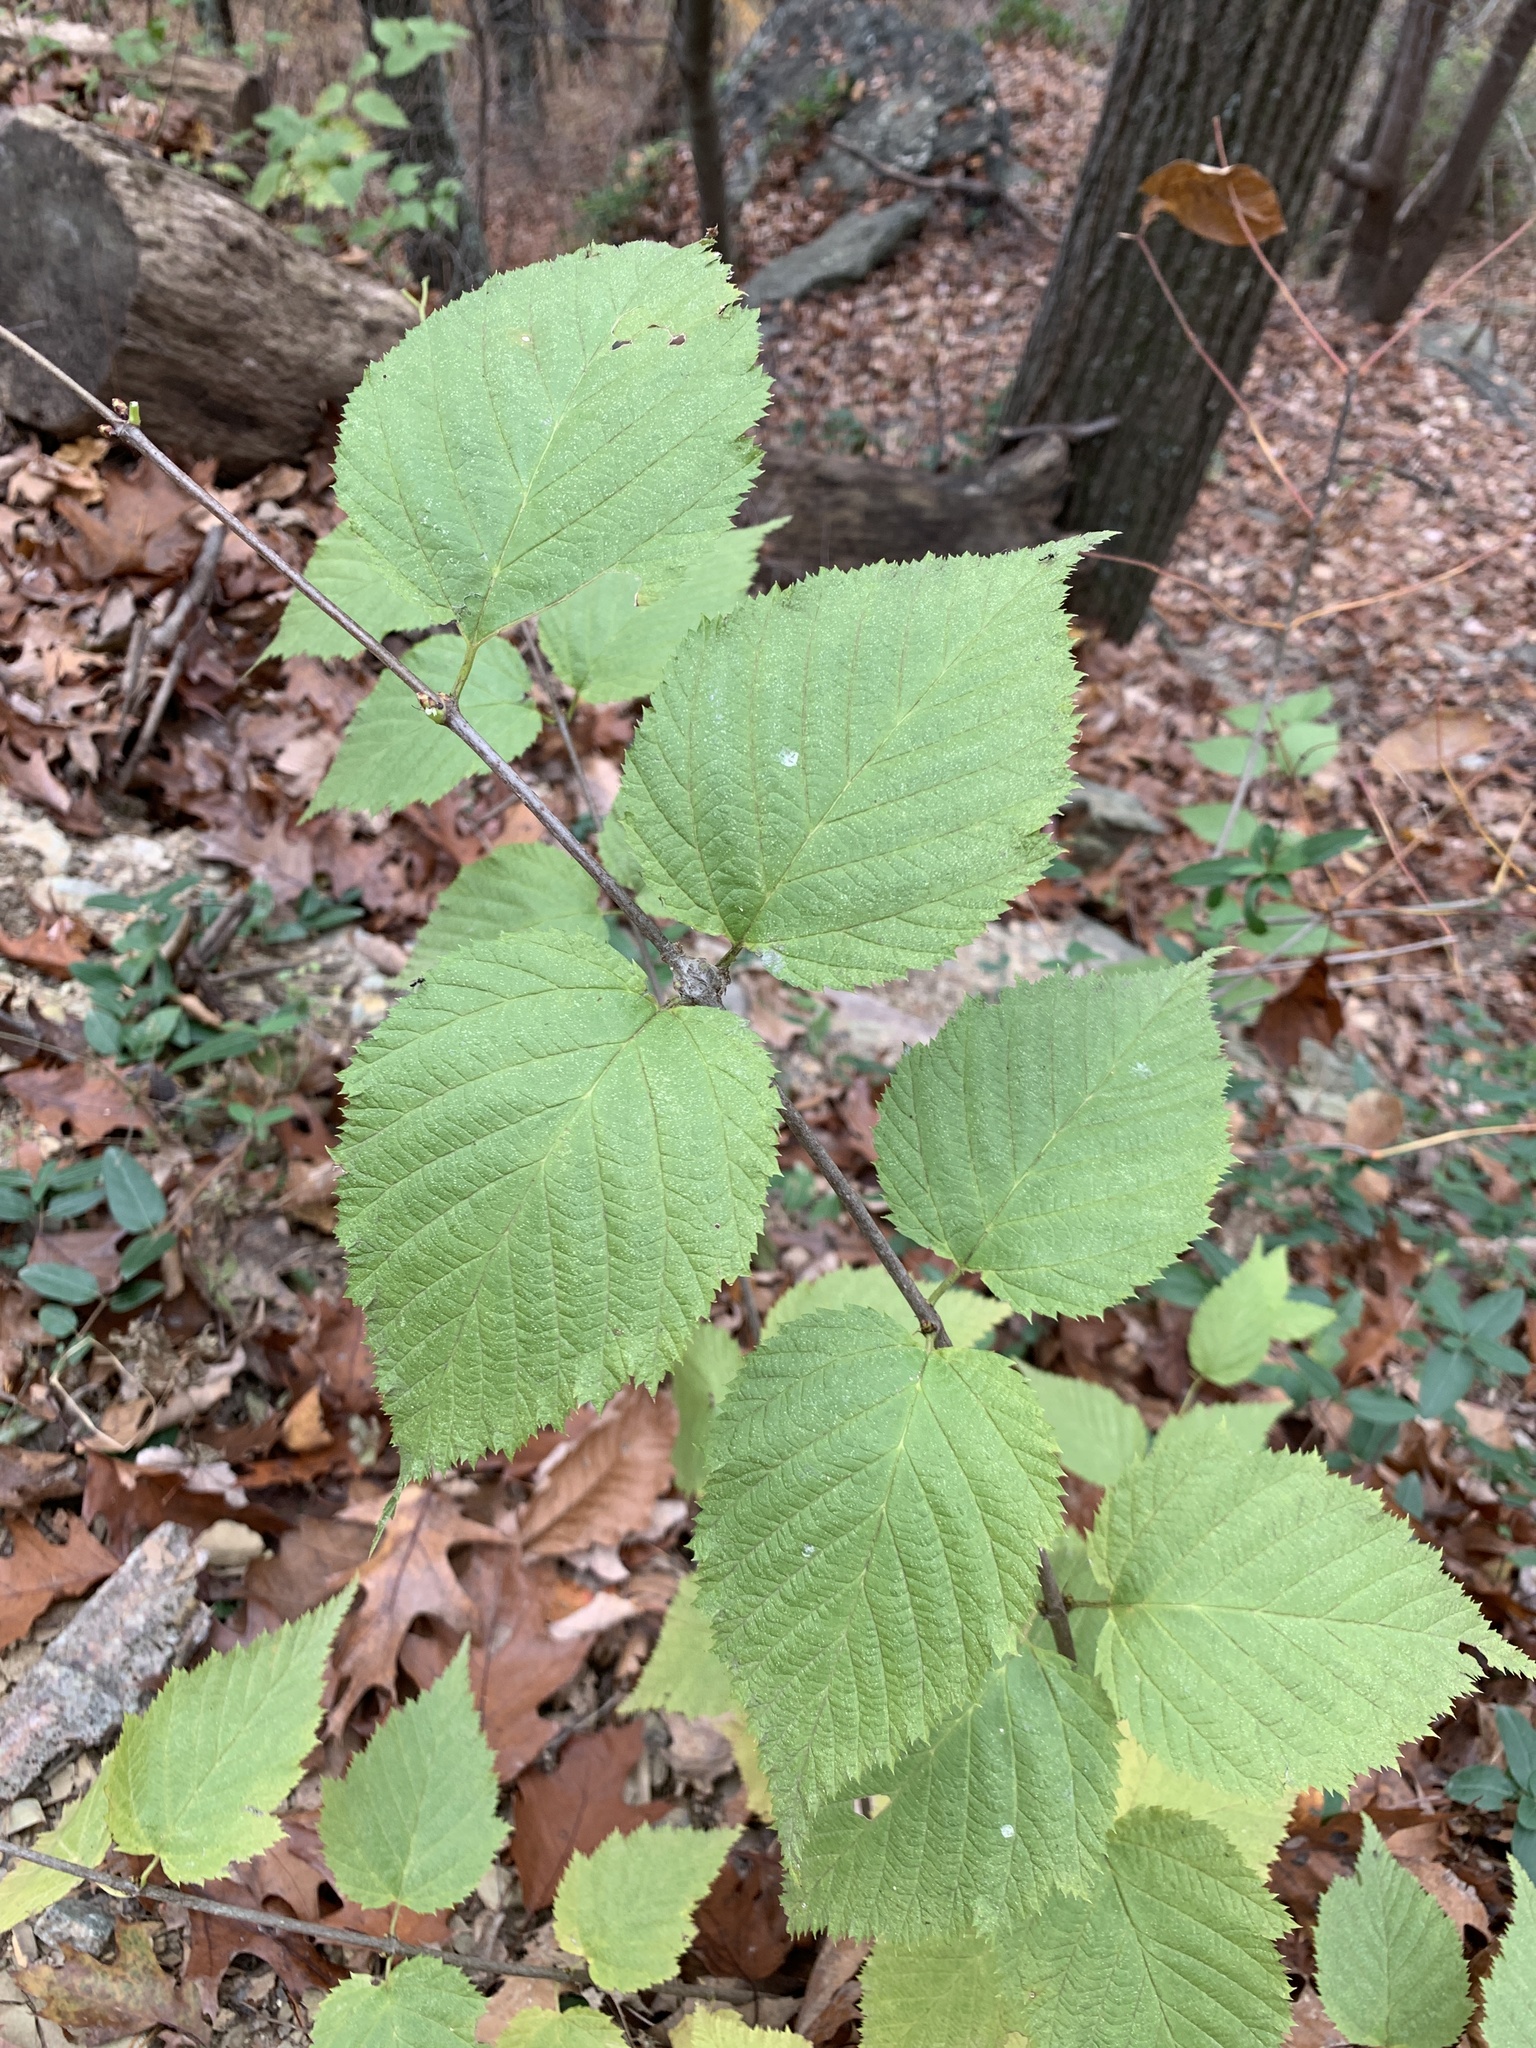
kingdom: Plantae
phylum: Tracheophyta
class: Magnoliopsida
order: Fagales
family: Betulaceae
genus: Corylus
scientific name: Corylus cornuta
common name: Beaked hazel
